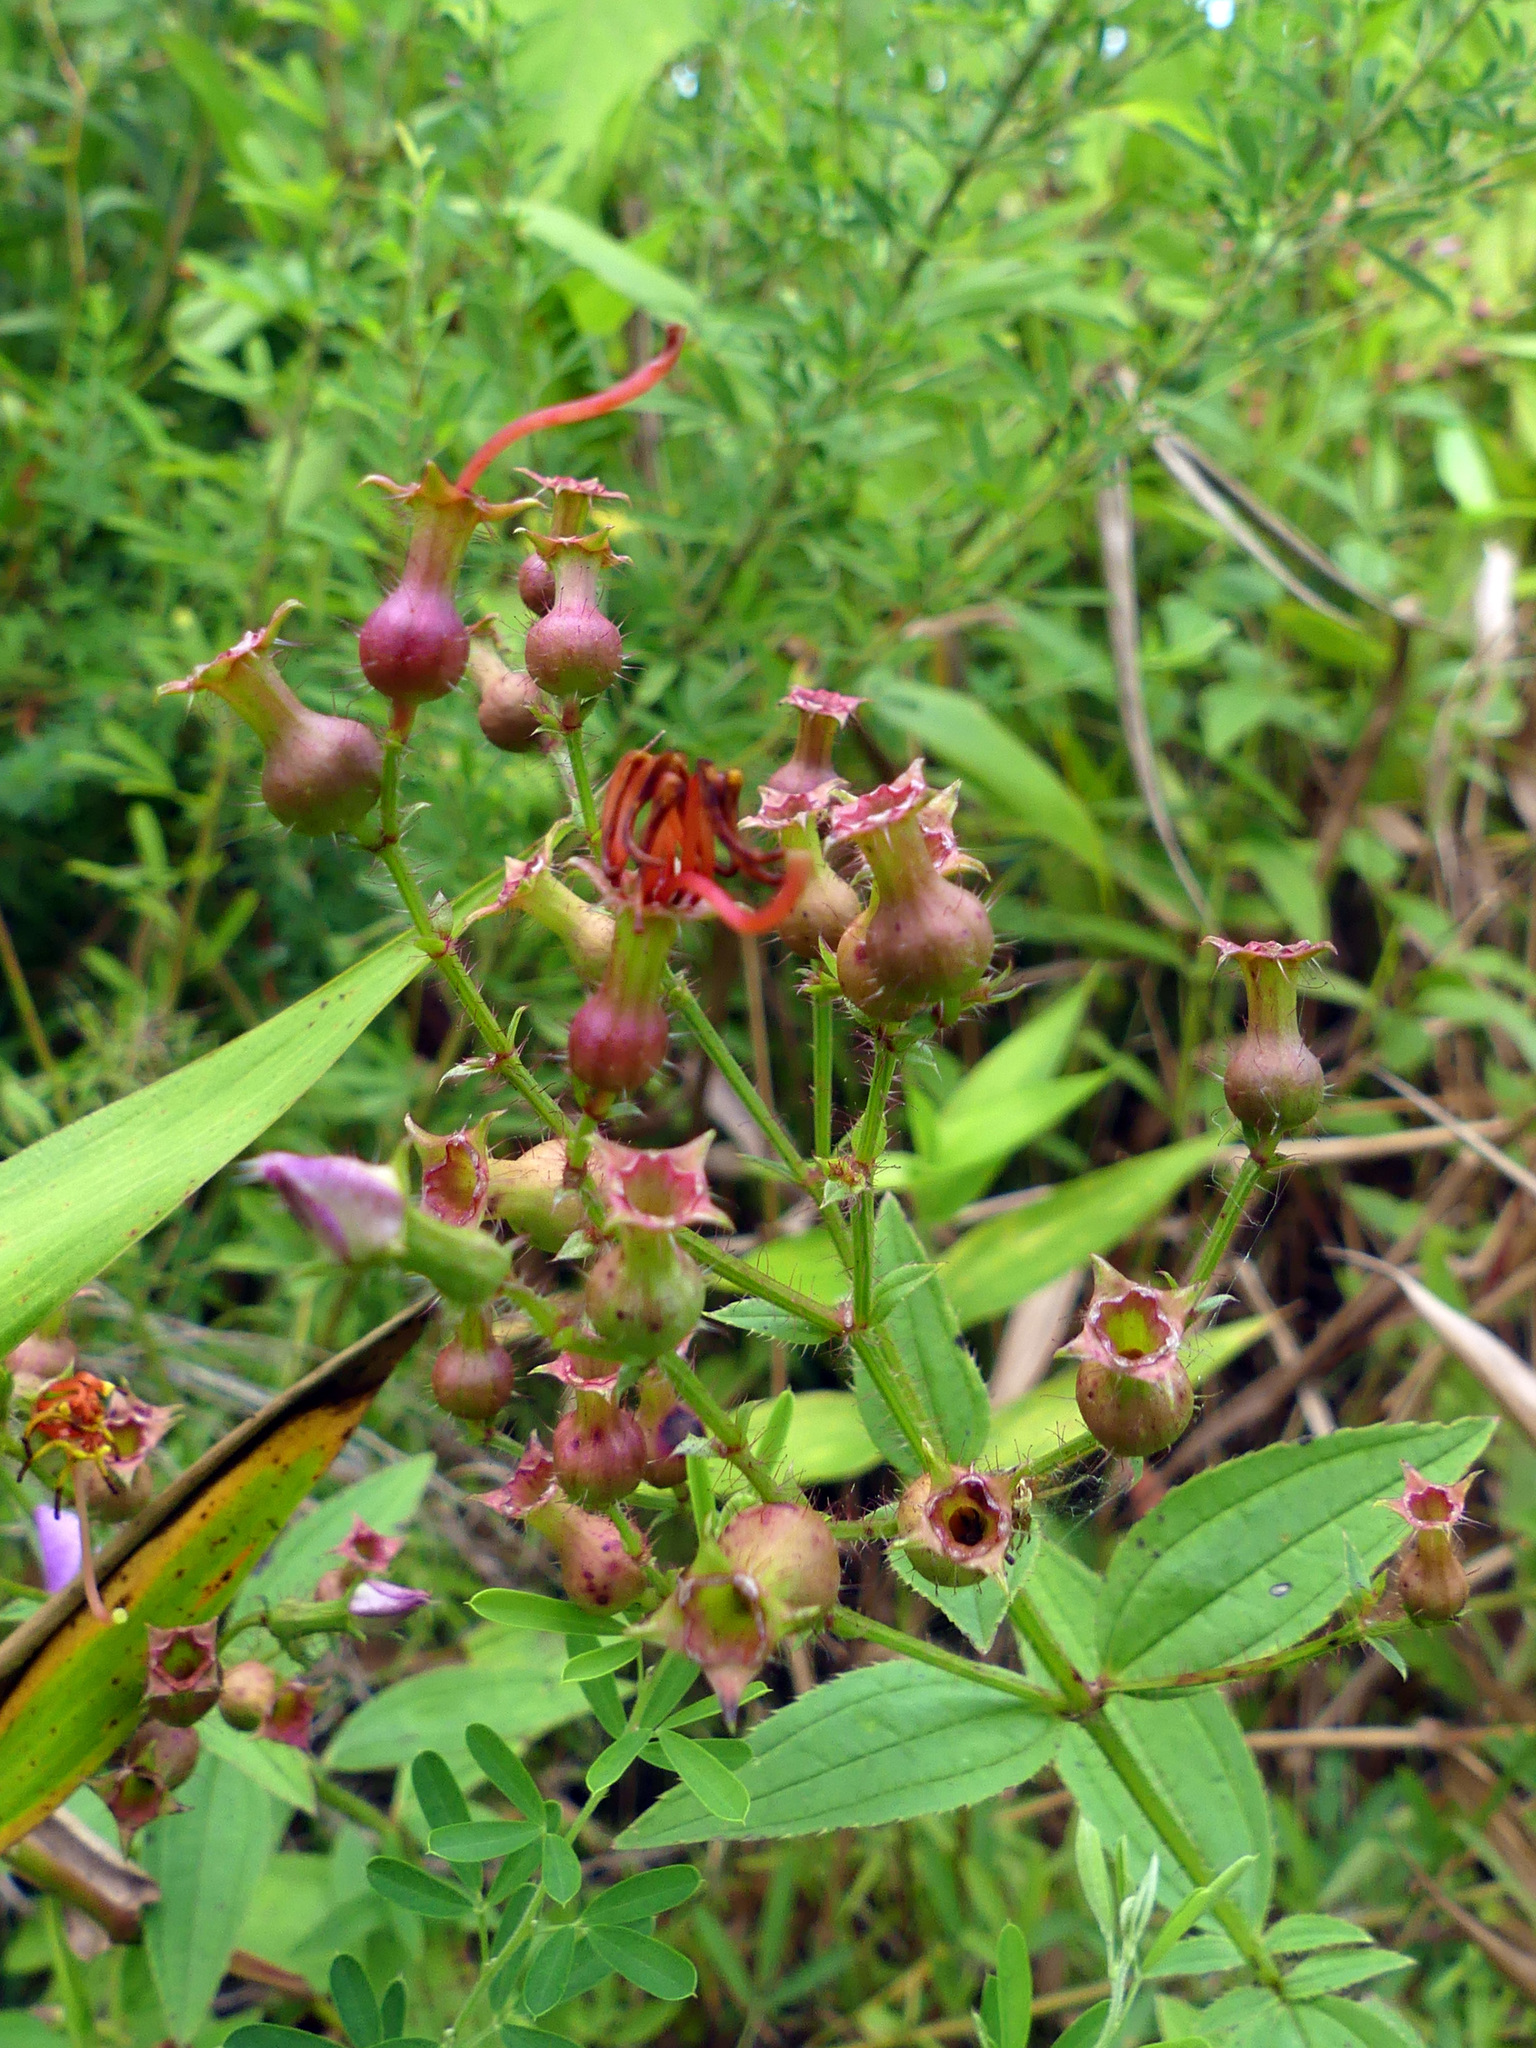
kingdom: Plantae
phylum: Tracheophyta
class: Magnoliopsida
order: Myrtales
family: Melastomataceae
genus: Rhexia
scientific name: Rhexia virginica
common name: Common meadow beauty
